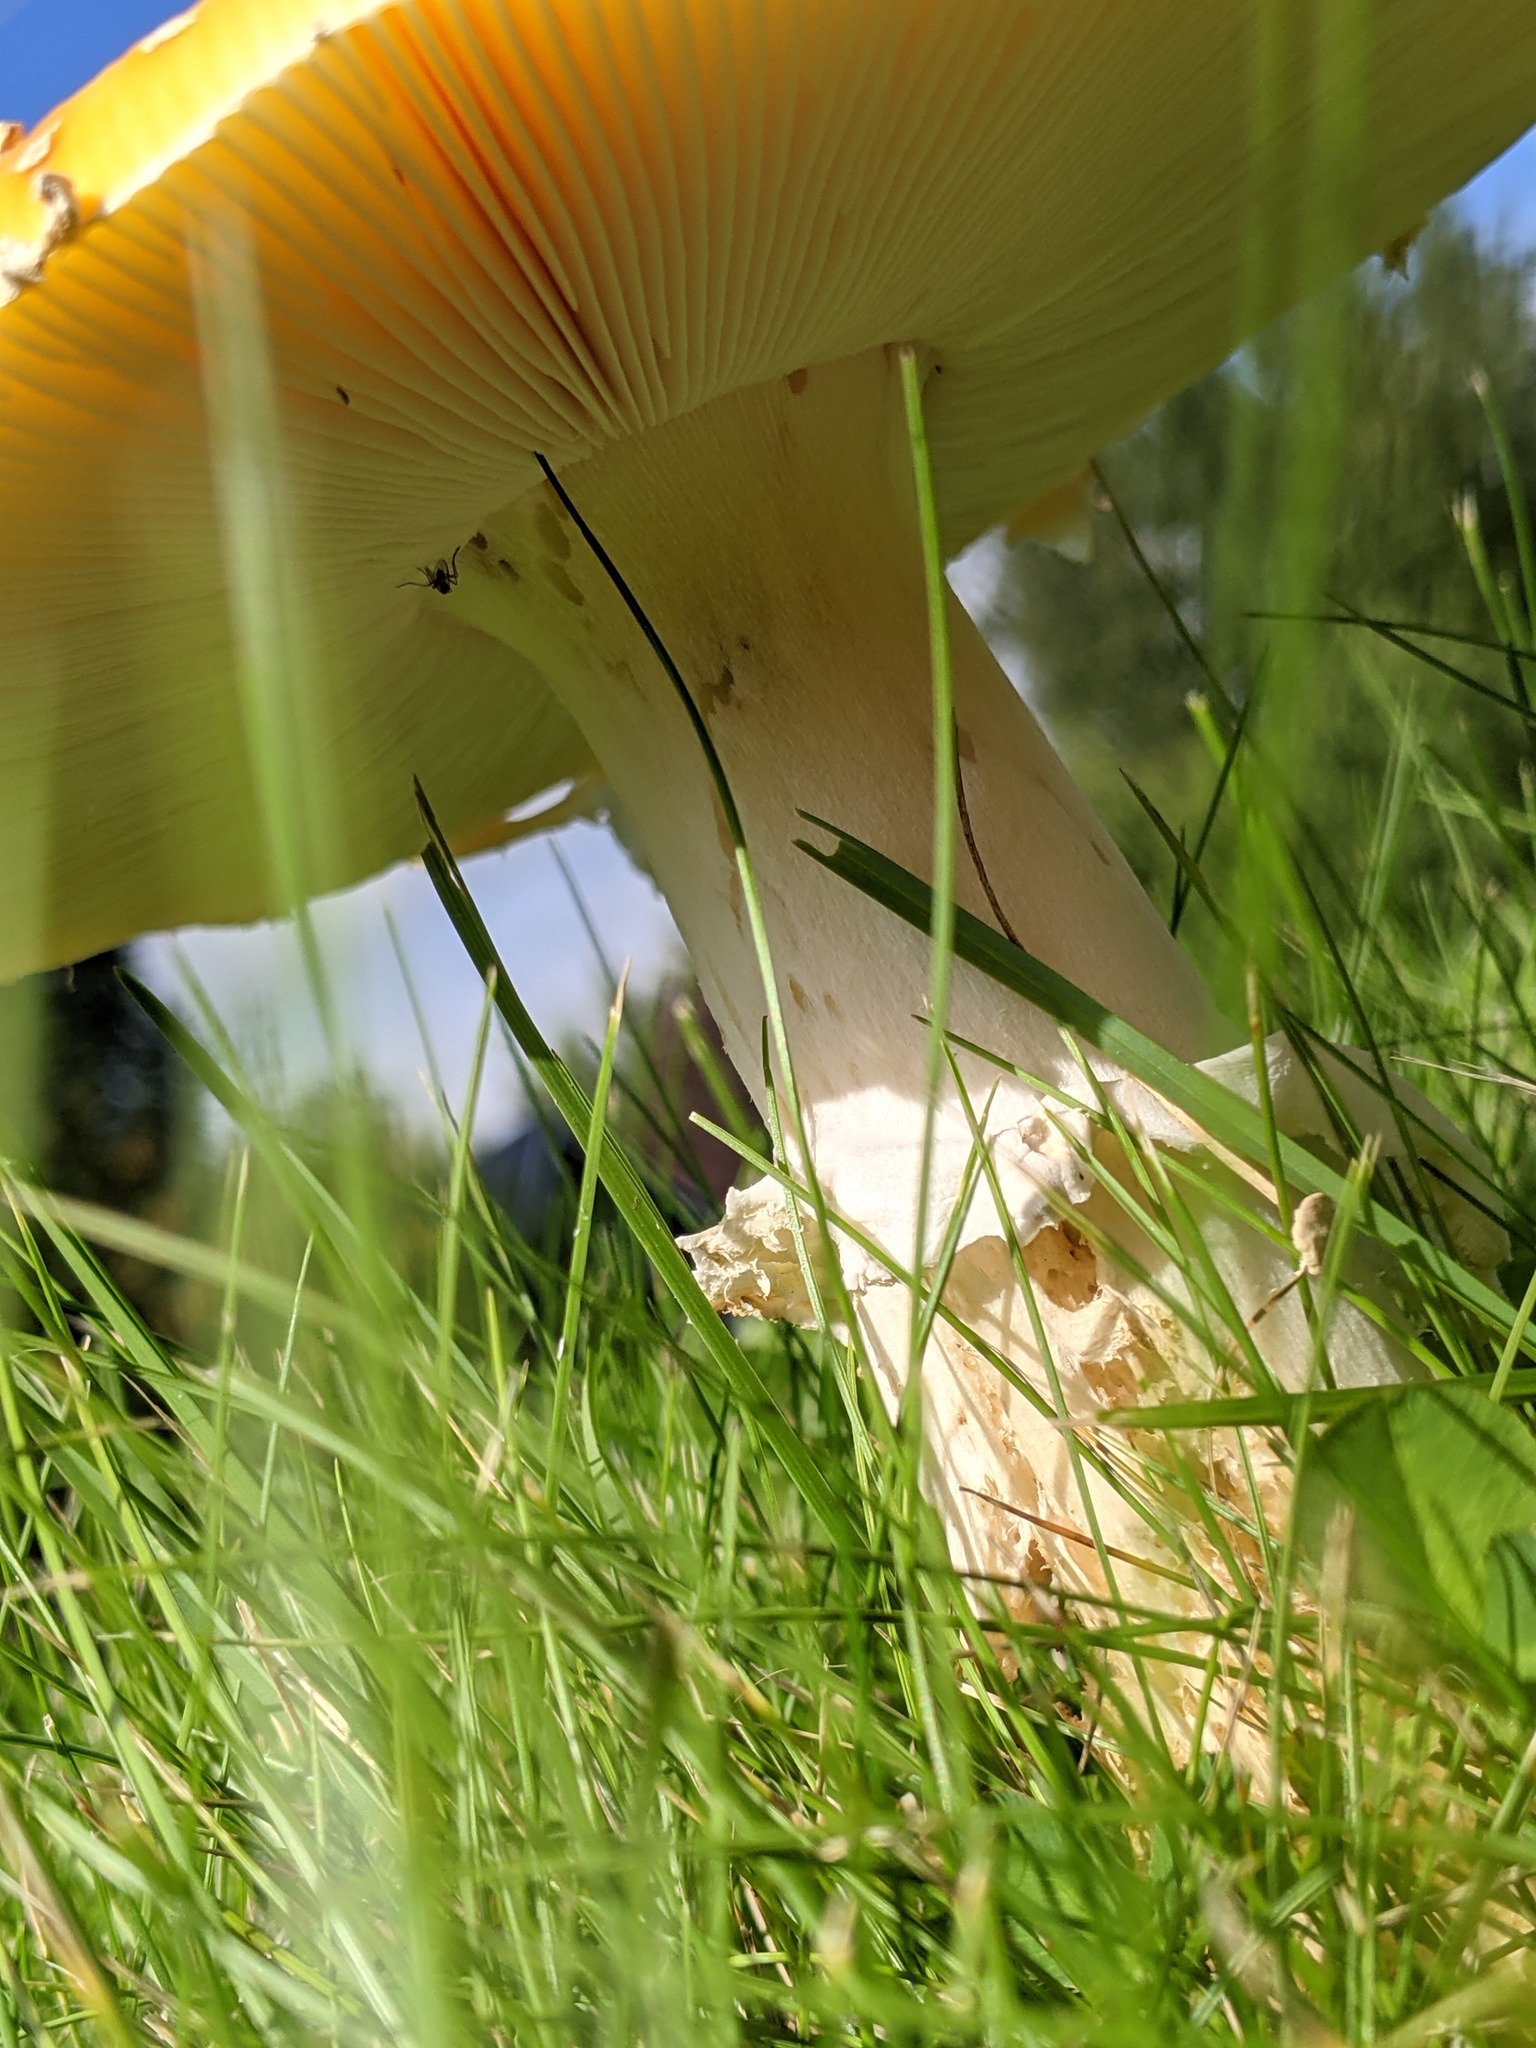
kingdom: Fungi
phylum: Basidiomycota
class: Agaricomycetes
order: Agaricales
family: Amanitaceae
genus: Amanita
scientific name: Amanita muscaria
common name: Fly agaric
